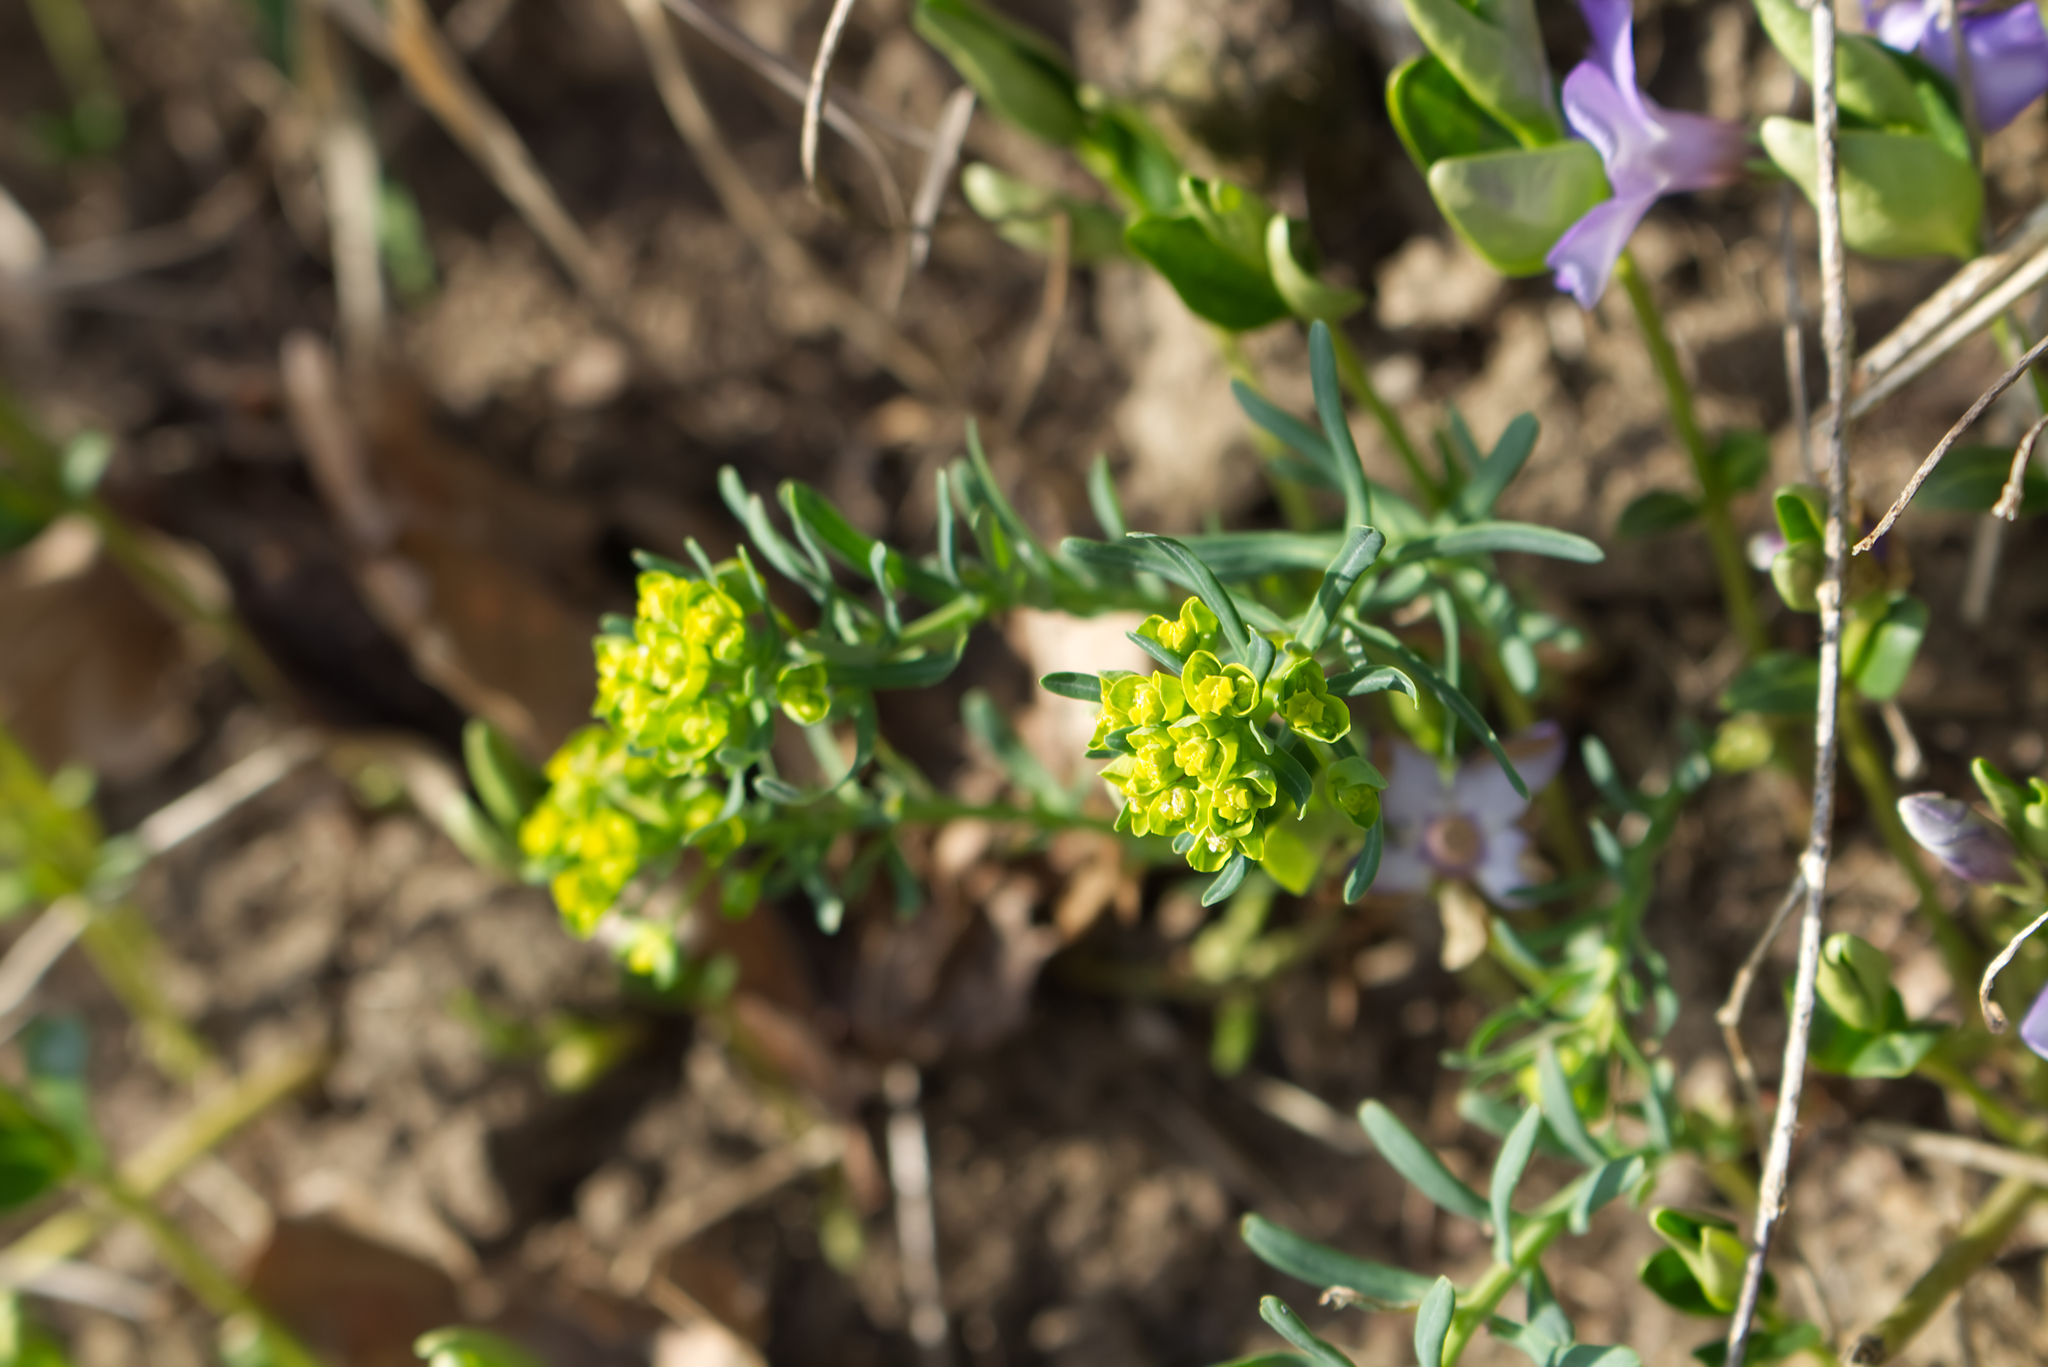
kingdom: Plantae
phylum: Tracheophyta
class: Magnoliopsida
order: Malpighiales
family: Euphorbiaceae
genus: Euphorbia
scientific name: Euphorbia cyparissias
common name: Cypress spurge
